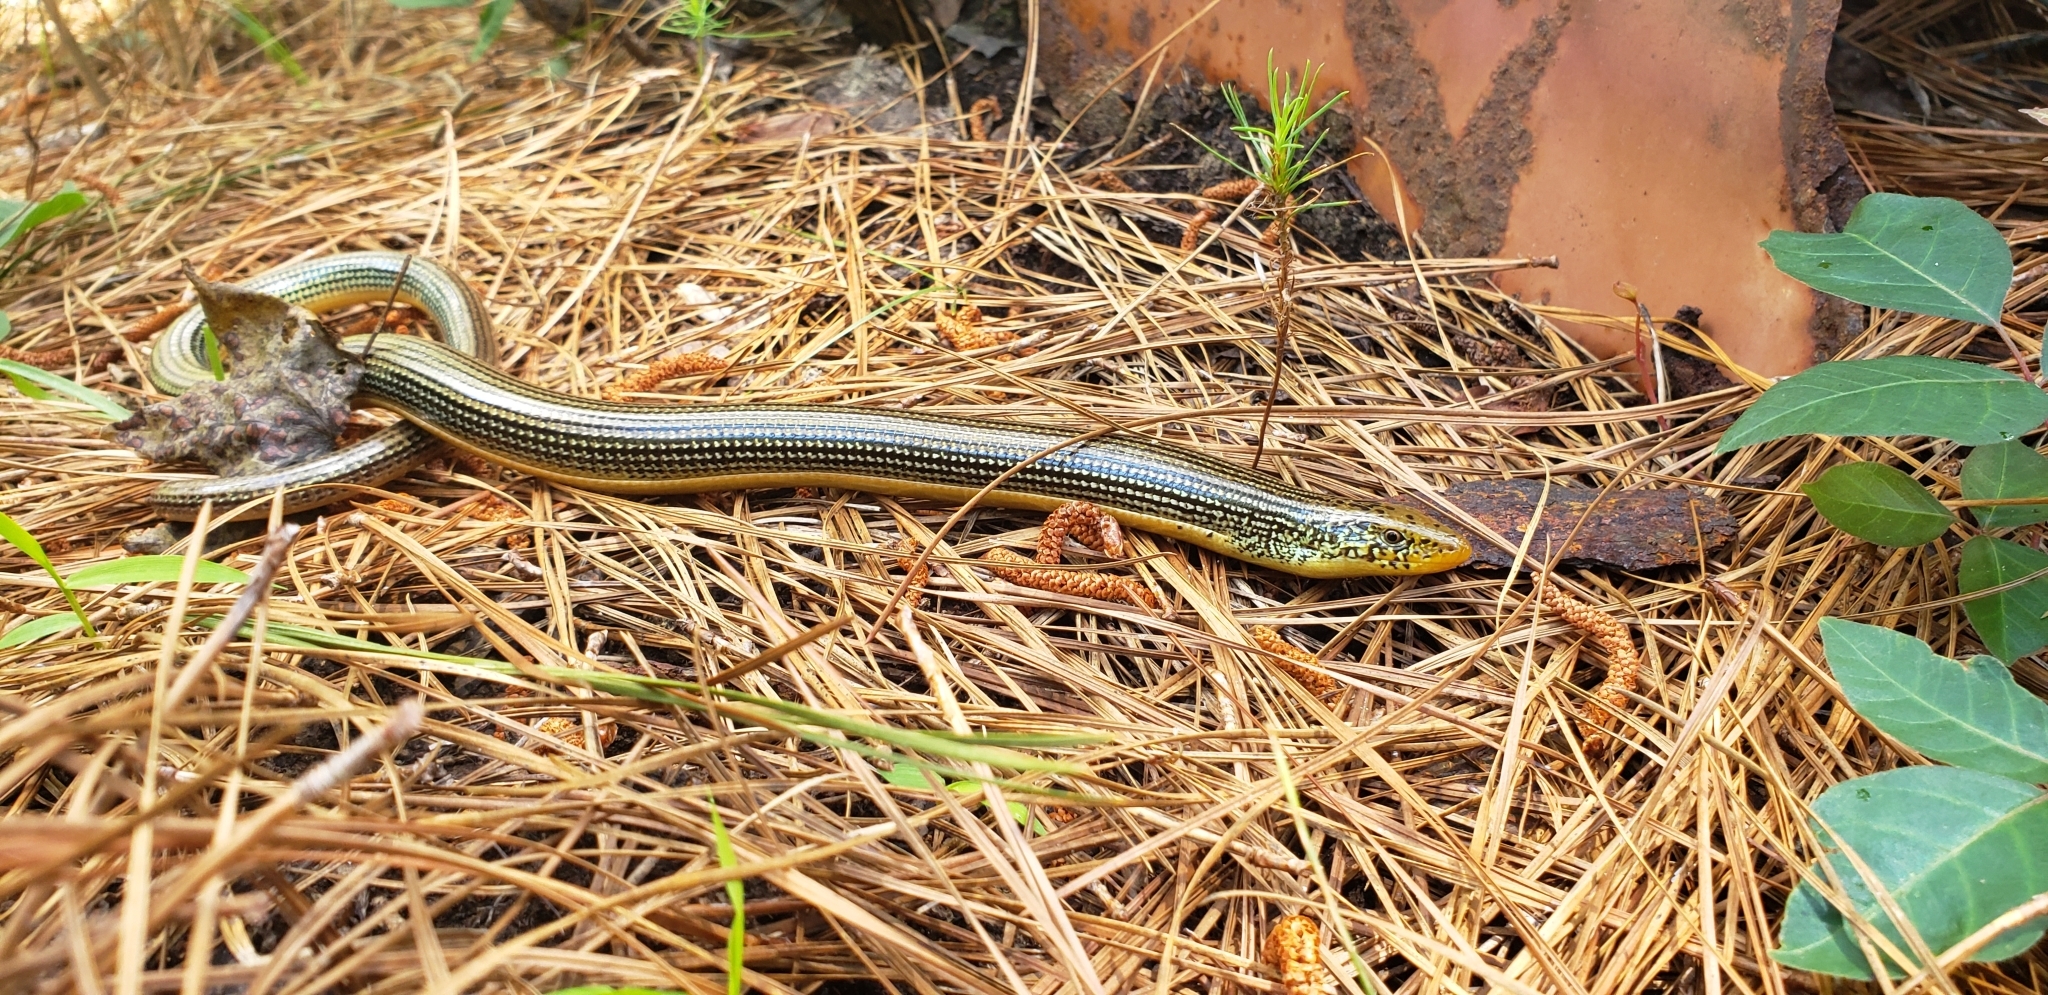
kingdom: Animalia
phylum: Chordata
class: Squamata
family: Anguidae
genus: Ophisaurus
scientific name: Ophisaurus ventralis
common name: Eastern glass lizard
